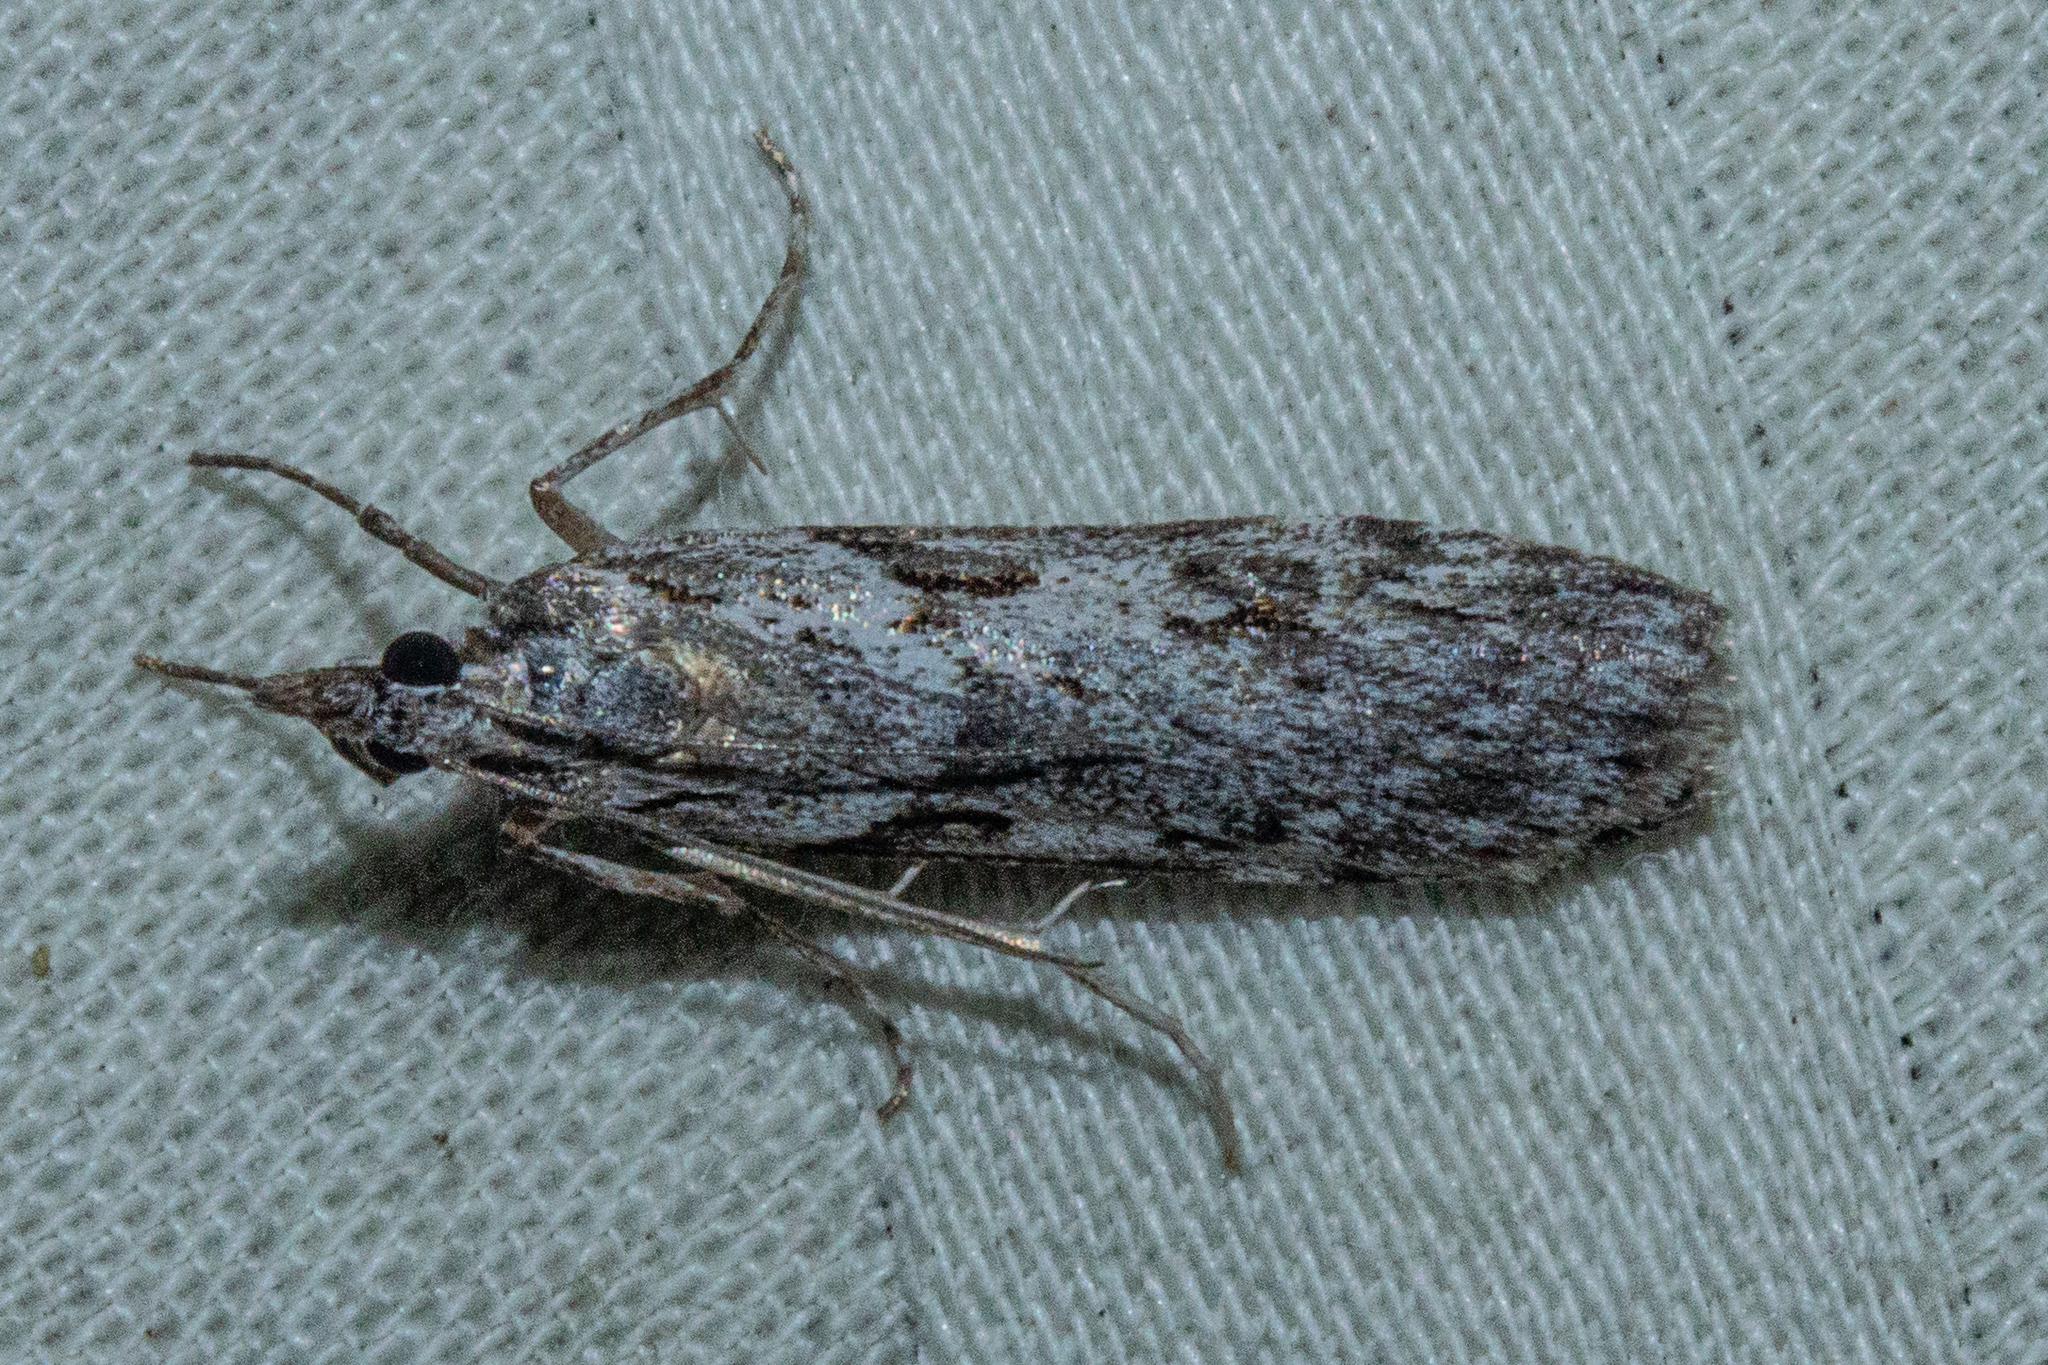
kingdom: Animalia
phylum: Arthropoda
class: Insecta
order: Lepidoptera
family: Crambidae
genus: Scoparia
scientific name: Scoparia halopis
